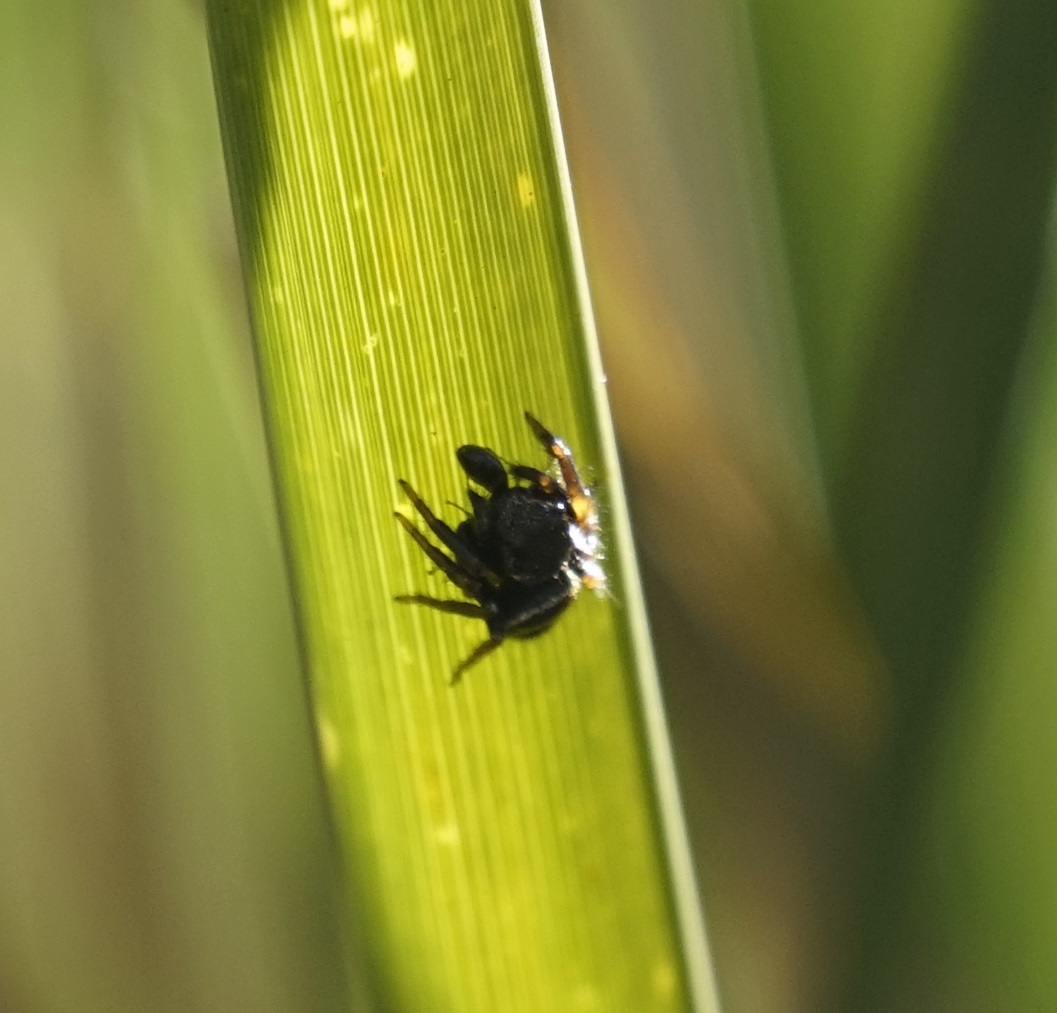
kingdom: Animalia
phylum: Arthropoda
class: Arachnida
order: Araneae
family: Salticidae
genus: Zenodorus
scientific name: Zenodorus orbiculatus
